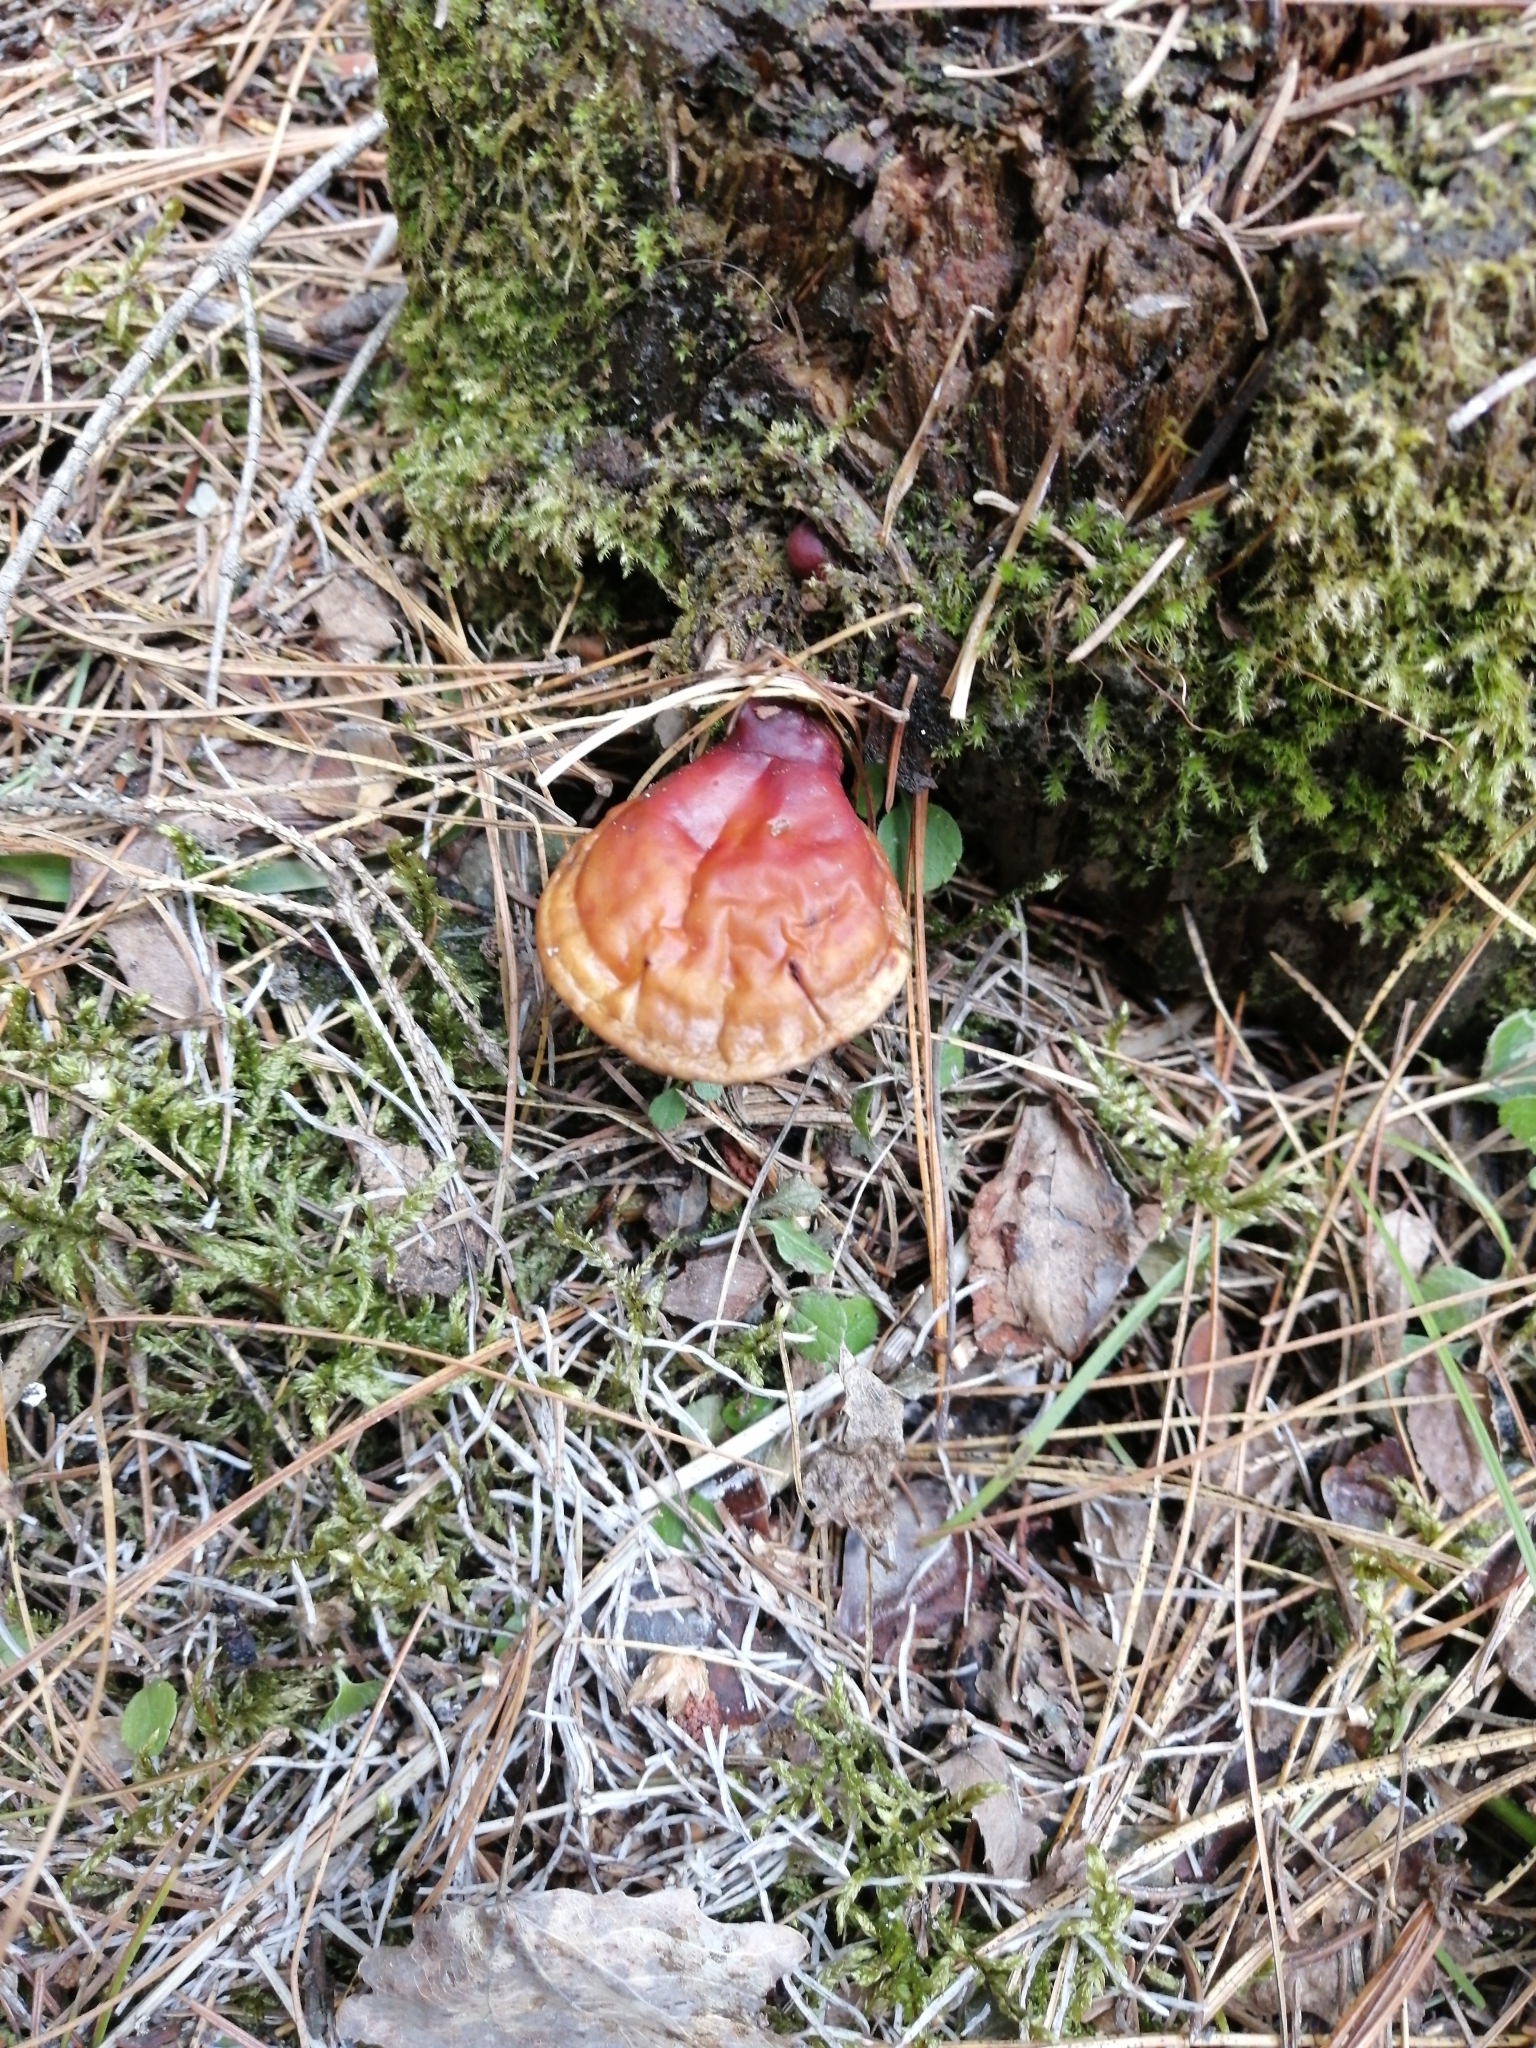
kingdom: Fungi
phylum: Basidiomycota
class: Agaricomycetes
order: Polyporales
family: Polyporaceae
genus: Ganoderma
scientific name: Ganoderma lucidum
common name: Lacquered bracket
